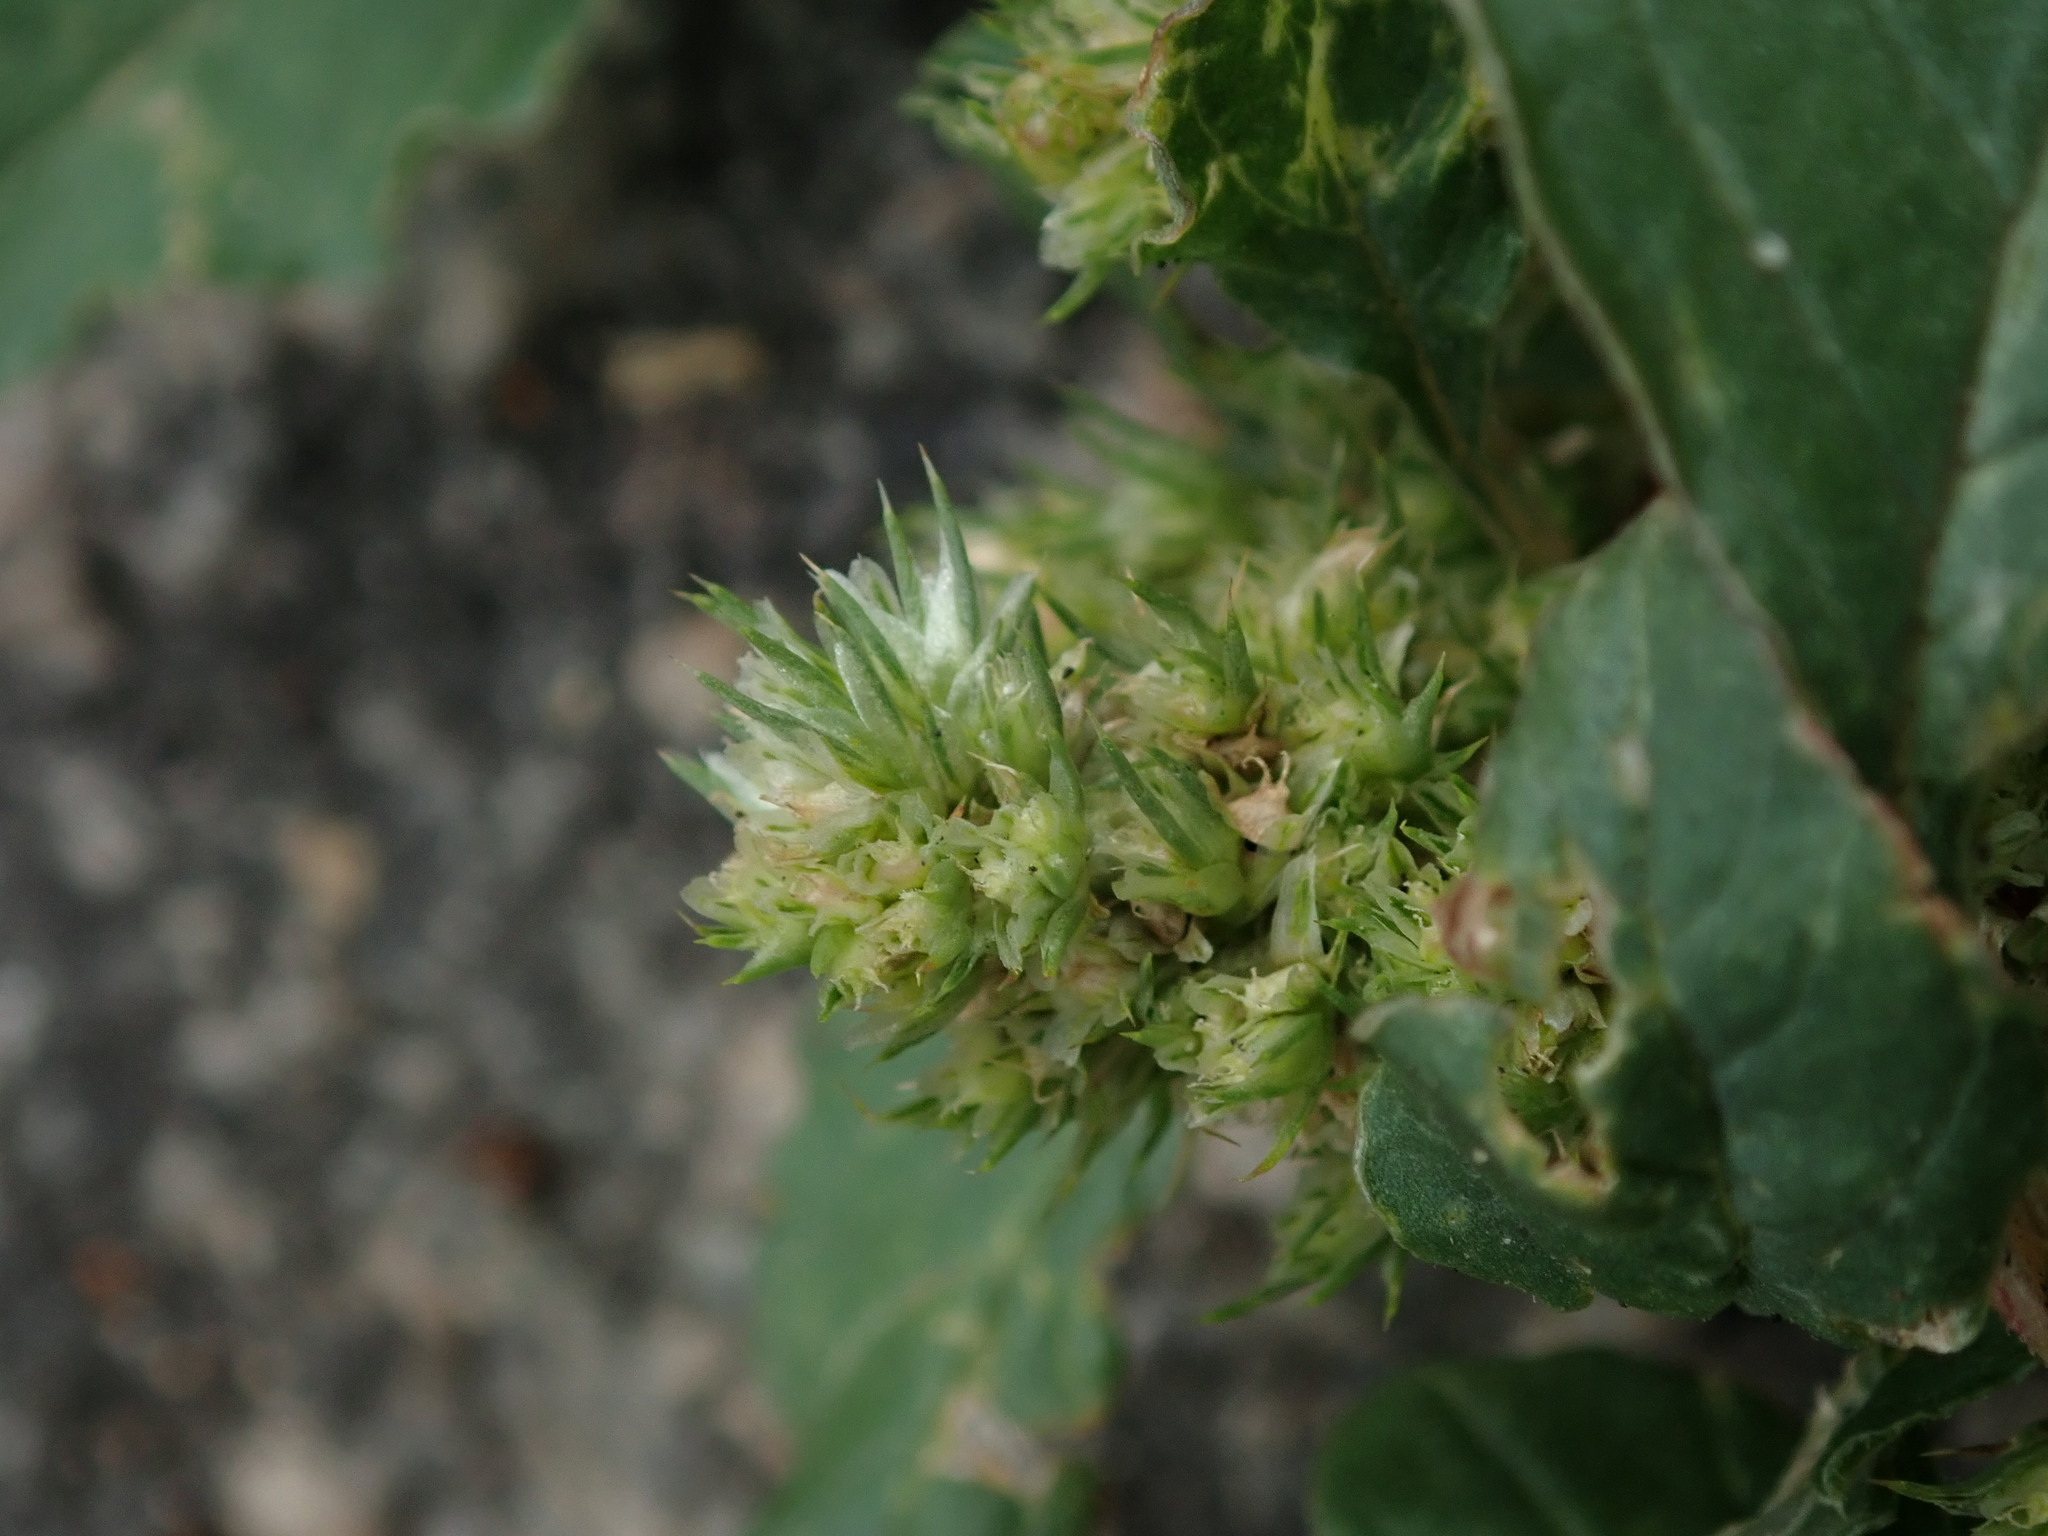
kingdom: Plantae
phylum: Tracheophyta
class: Magnoliopsida
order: Caryophyllales
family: Amaranthaceae
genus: Amaranthus
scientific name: Amaranthus retroflexus
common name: Redroot amaranth
